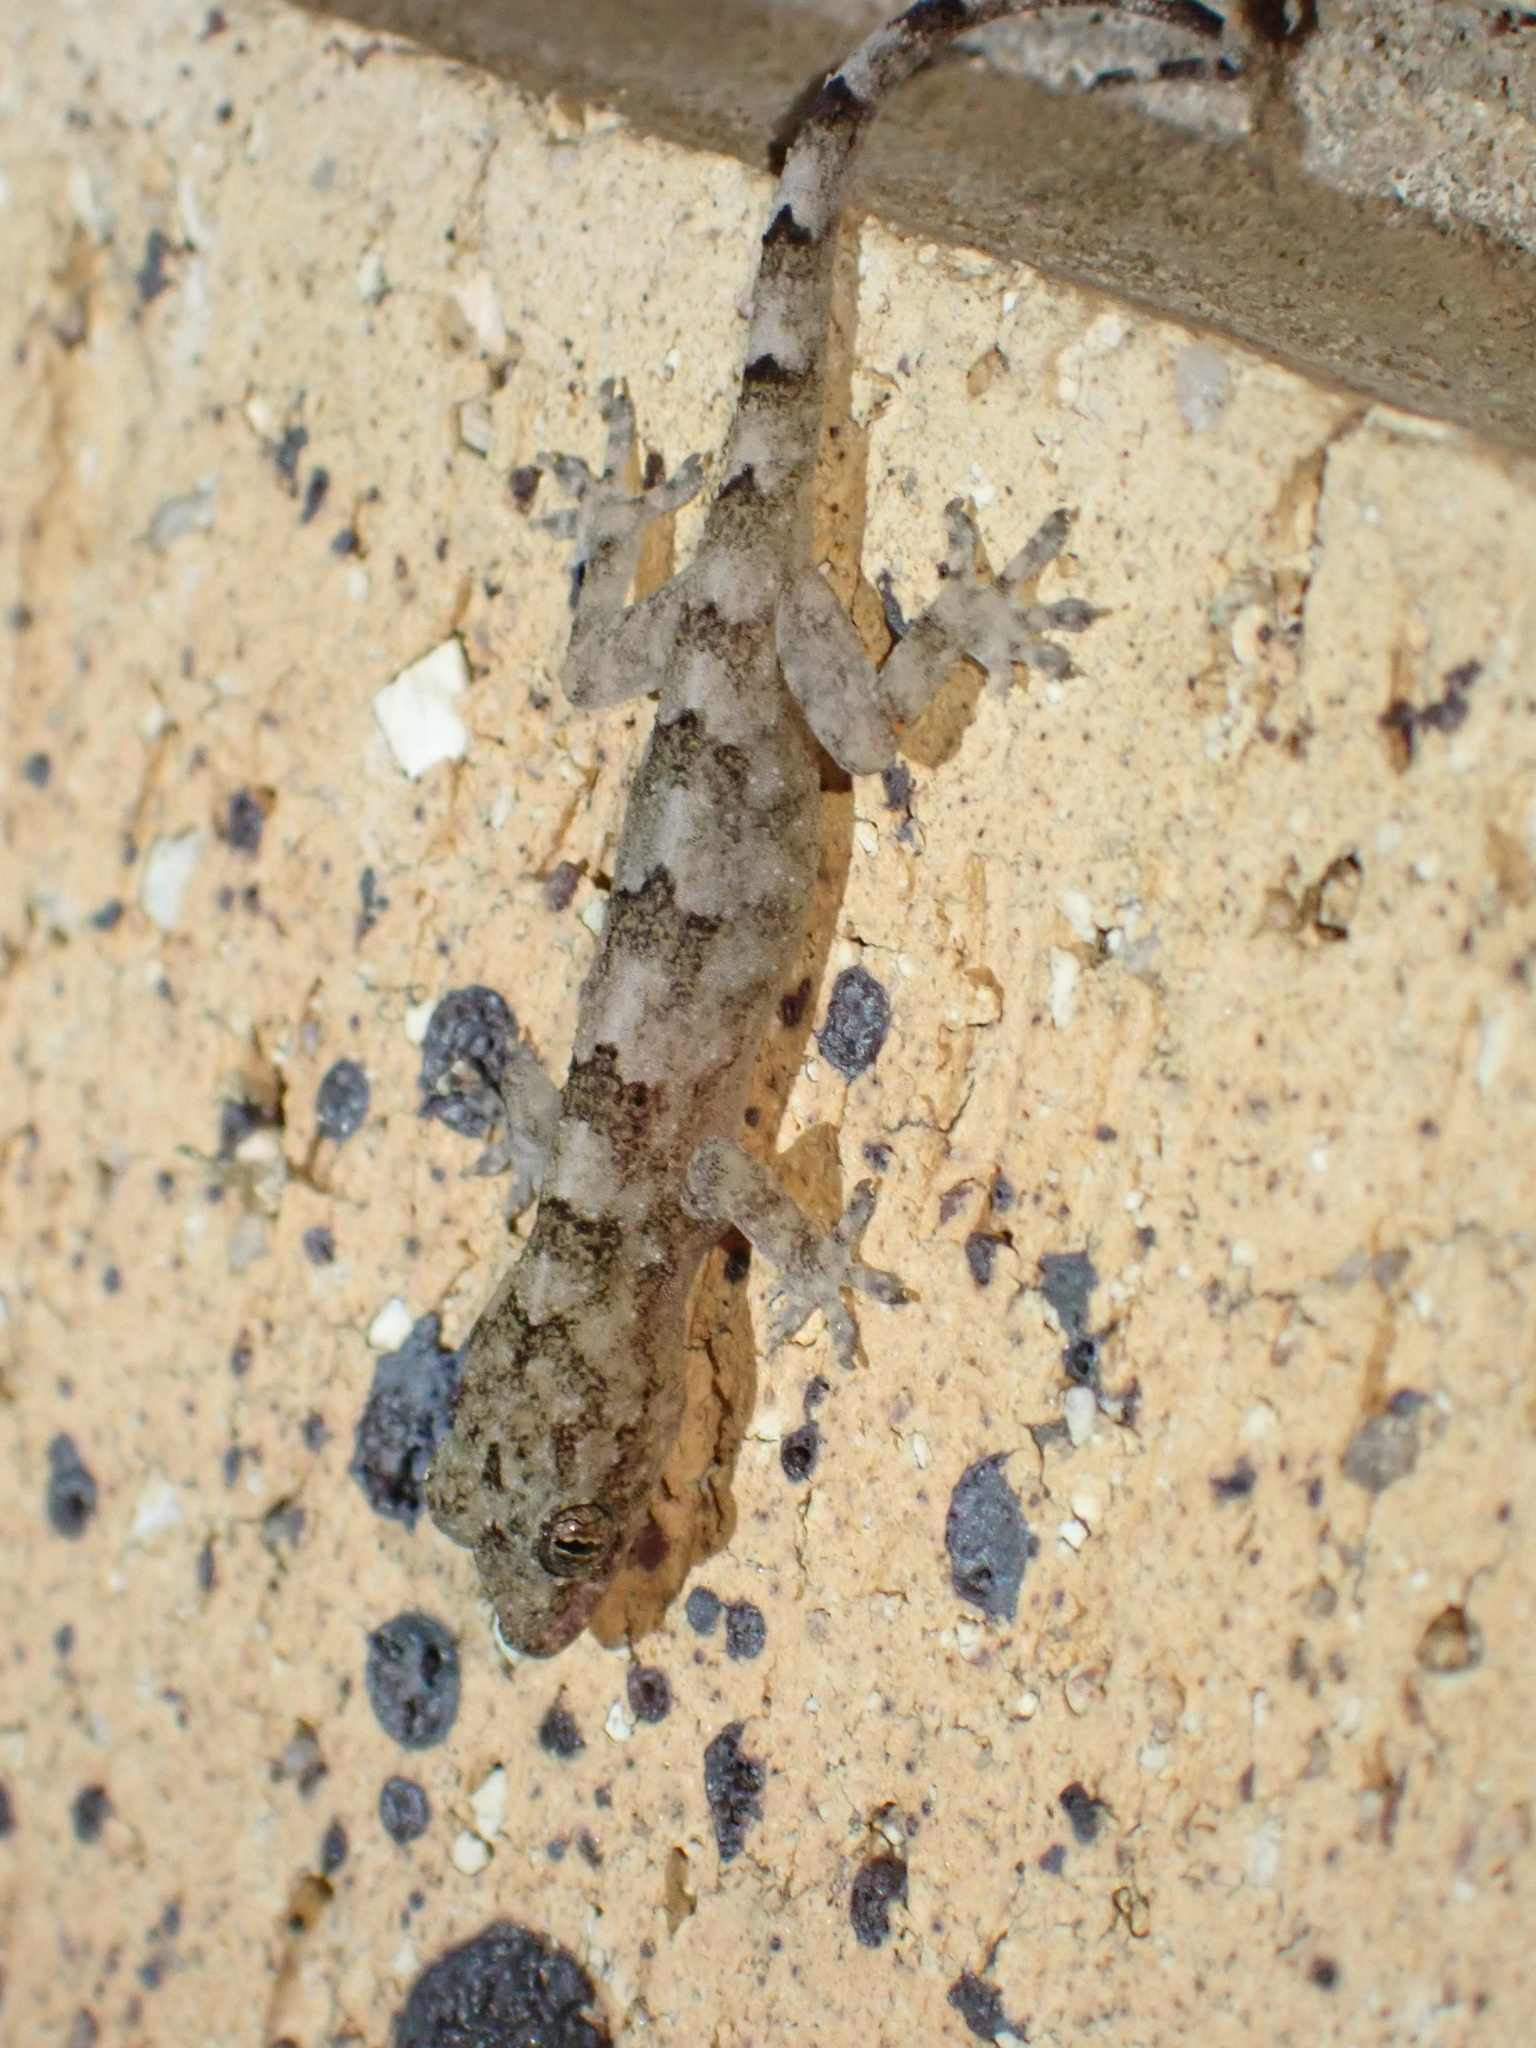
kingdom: Animalia
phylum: Chordata
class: Squamata
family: Gekkonidae
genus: Hemidactylus
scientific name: Hemidactylus mabouia
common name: House gecko
